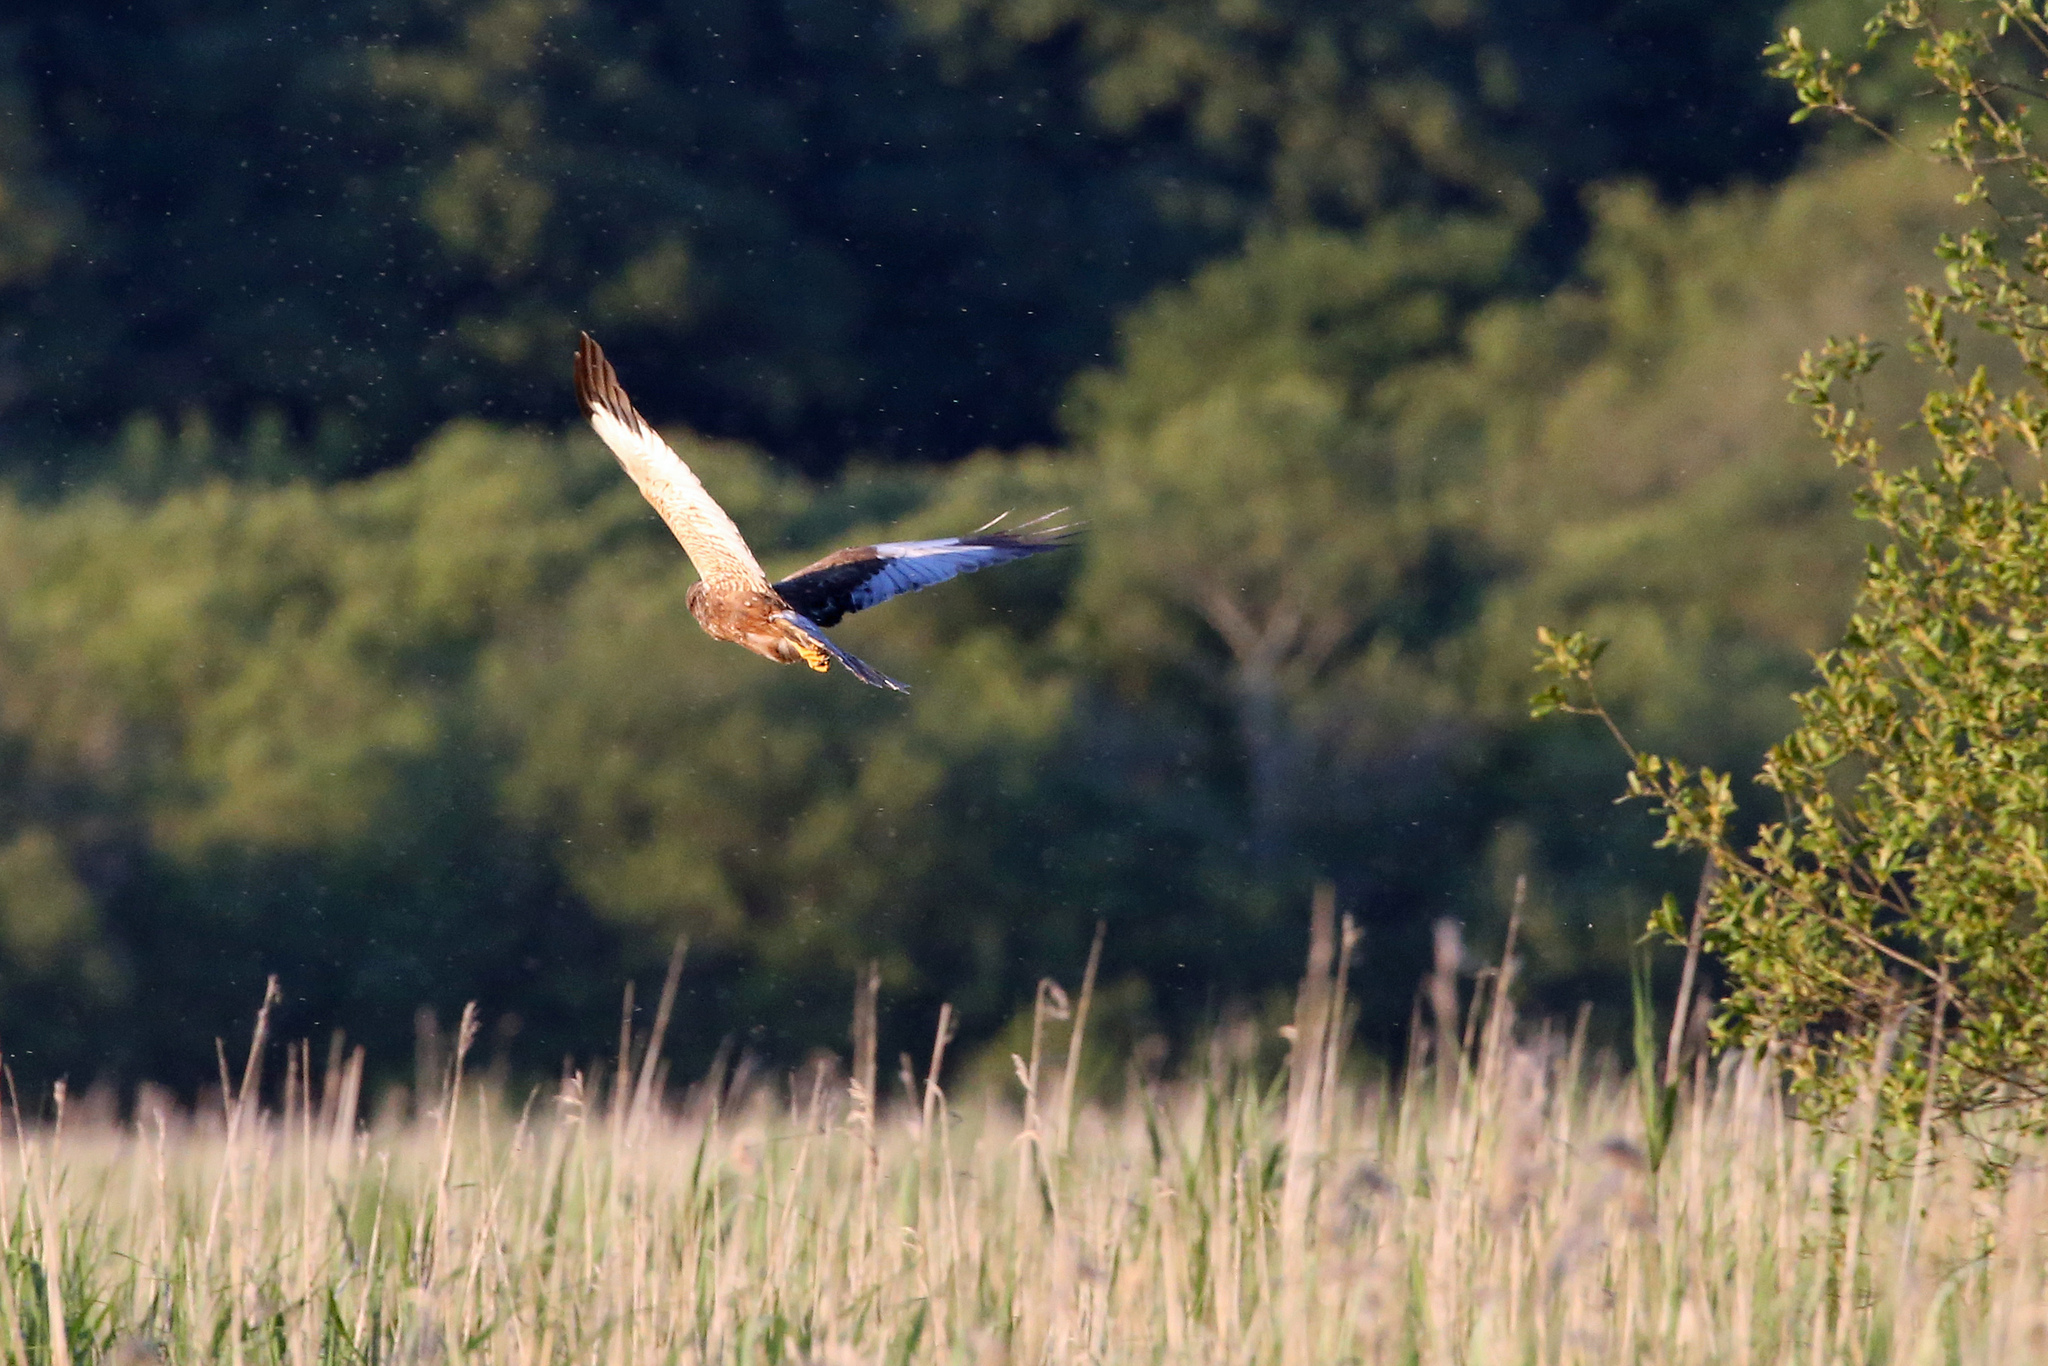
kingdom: Animalia
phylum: Chordata
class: Aves
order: Accipitriformes
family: Accipitridae
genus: Circus
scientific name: Circus aeruginosus
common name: Western marsh harrier
